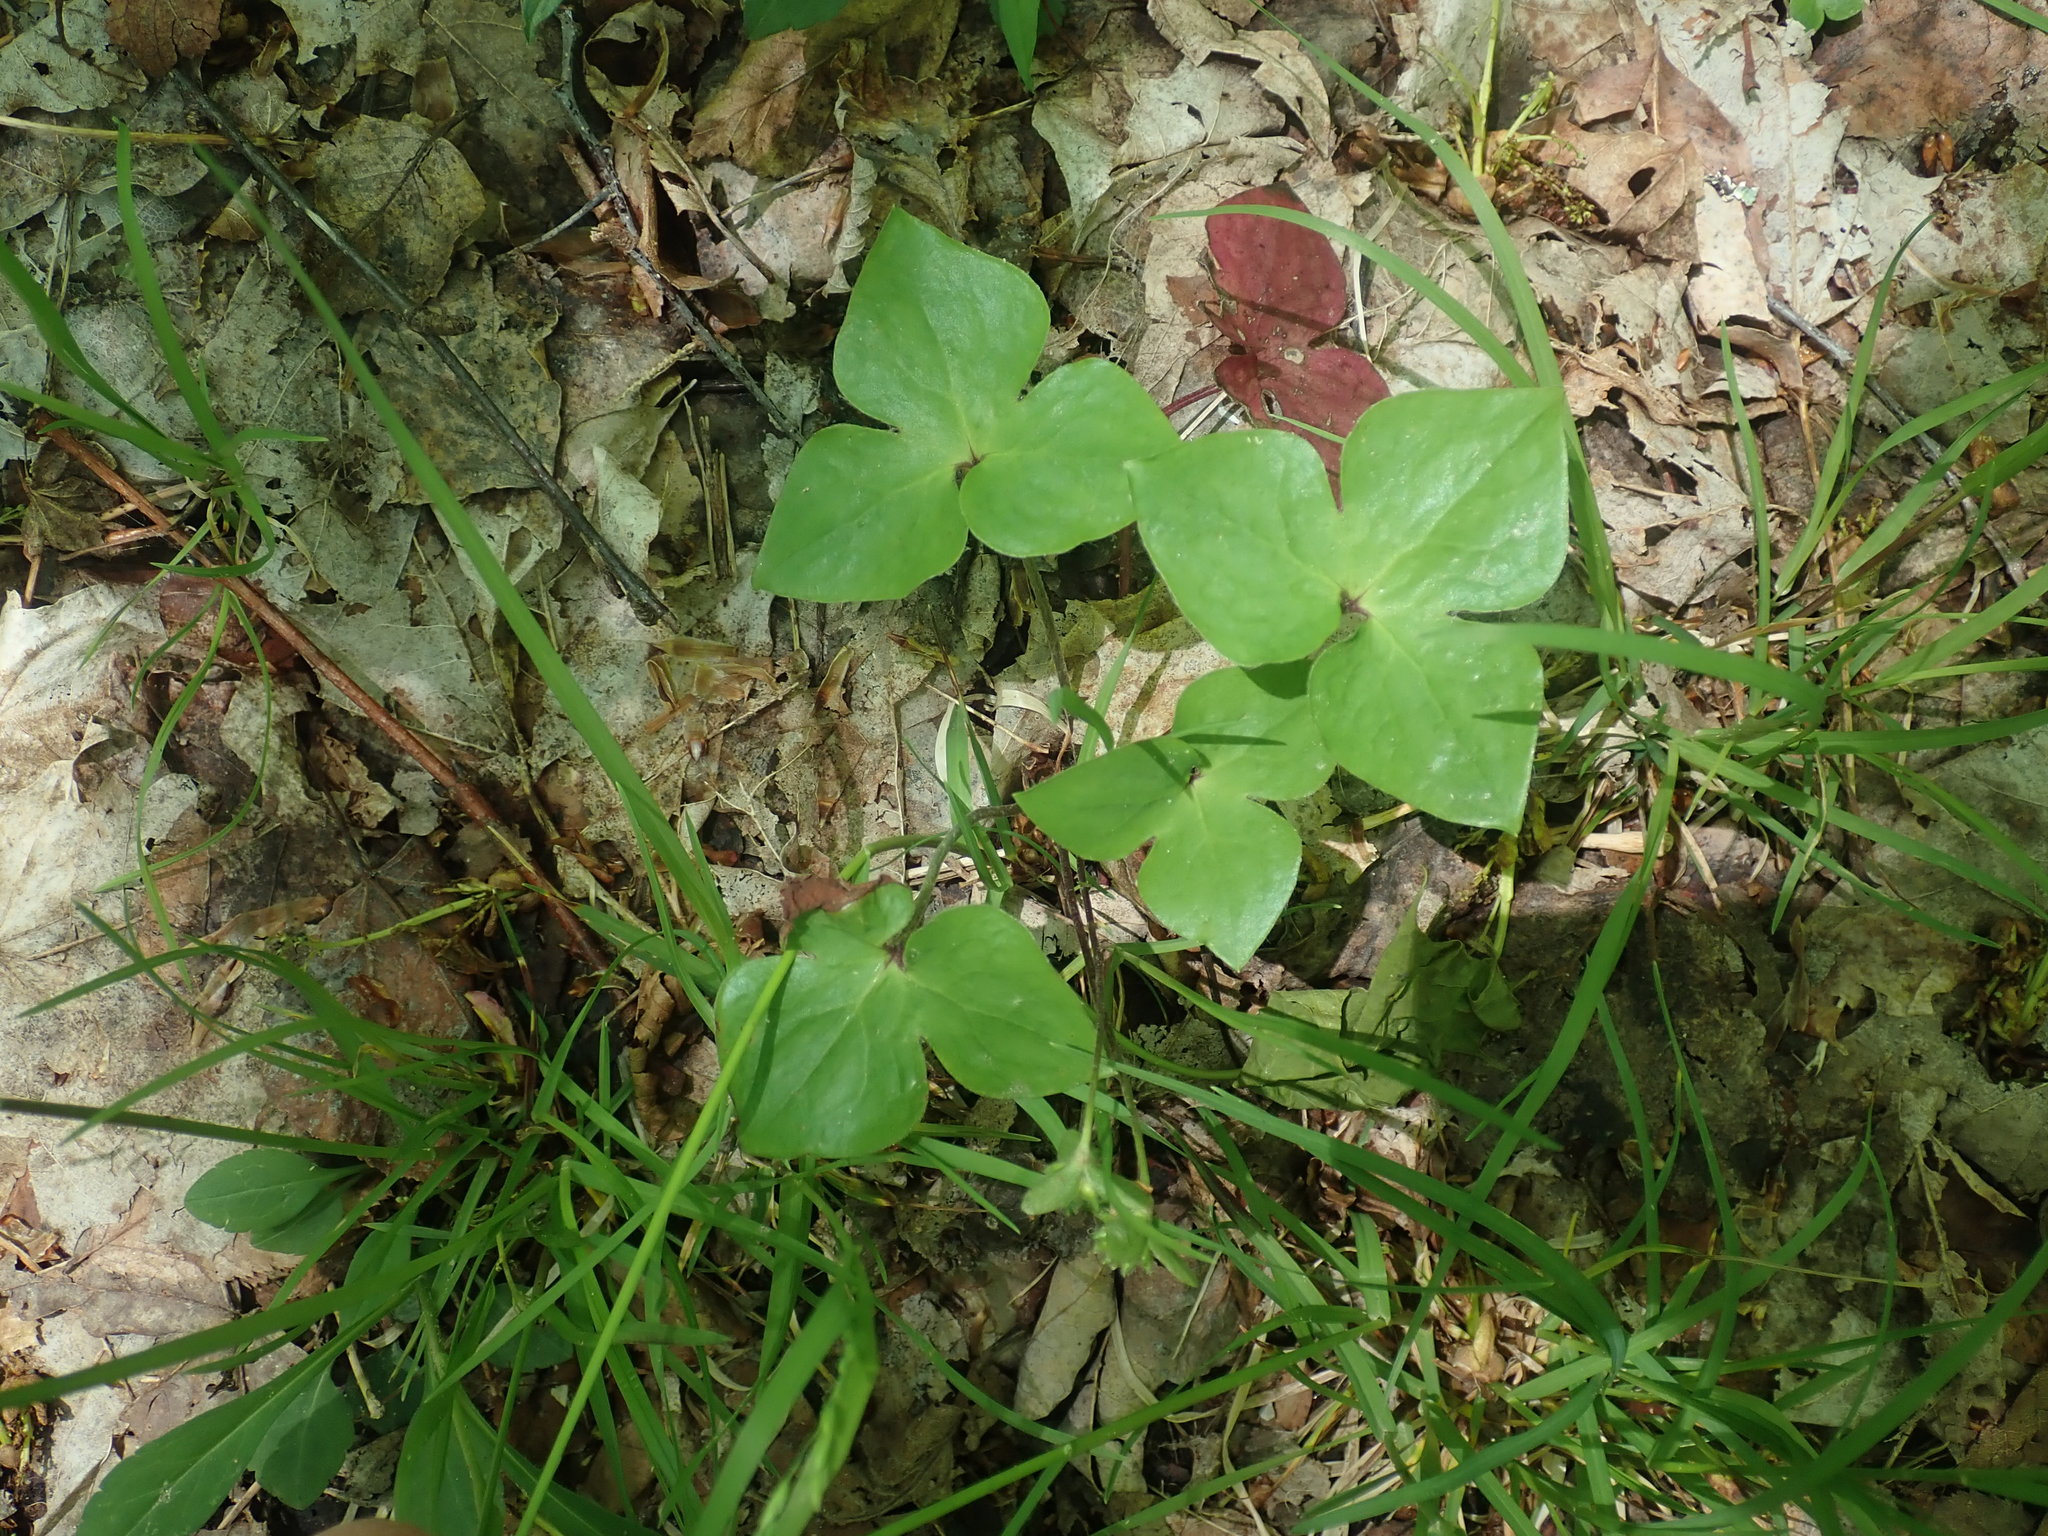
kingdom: Plantae
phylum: Tracheophyta
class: Magnoliopsida
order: Ranunculales
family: Ranunculaceae
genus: Hepatica
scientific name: Hepatica acutiloba
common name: Sharp-lobed hepatica
